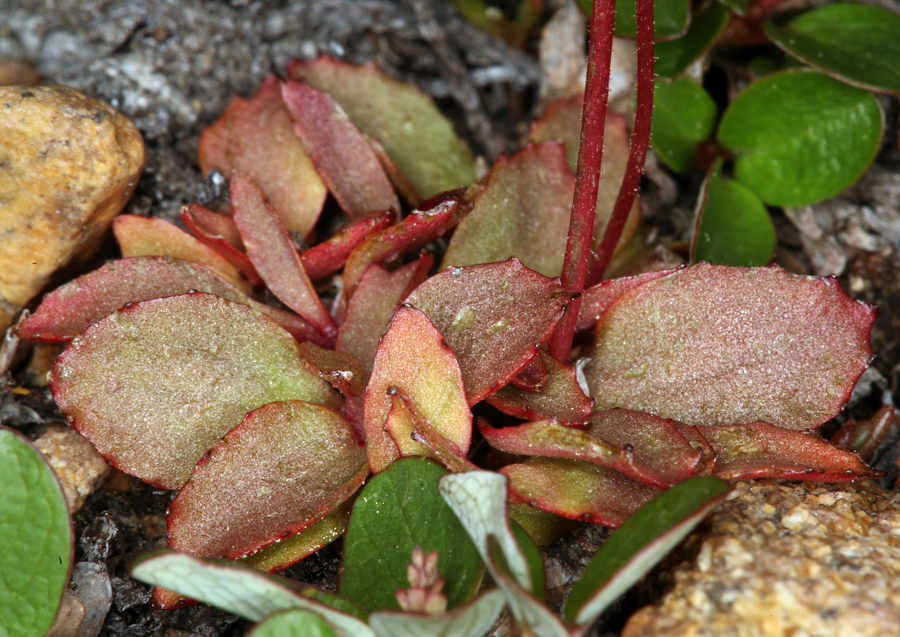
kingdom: Plantae
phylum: Tracheophyta
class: Magnoliopsida
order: Saxifragales
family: Saxifragaceae
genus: Micranthes
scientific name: Micranthes aprica
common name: Sierra saxifrage
